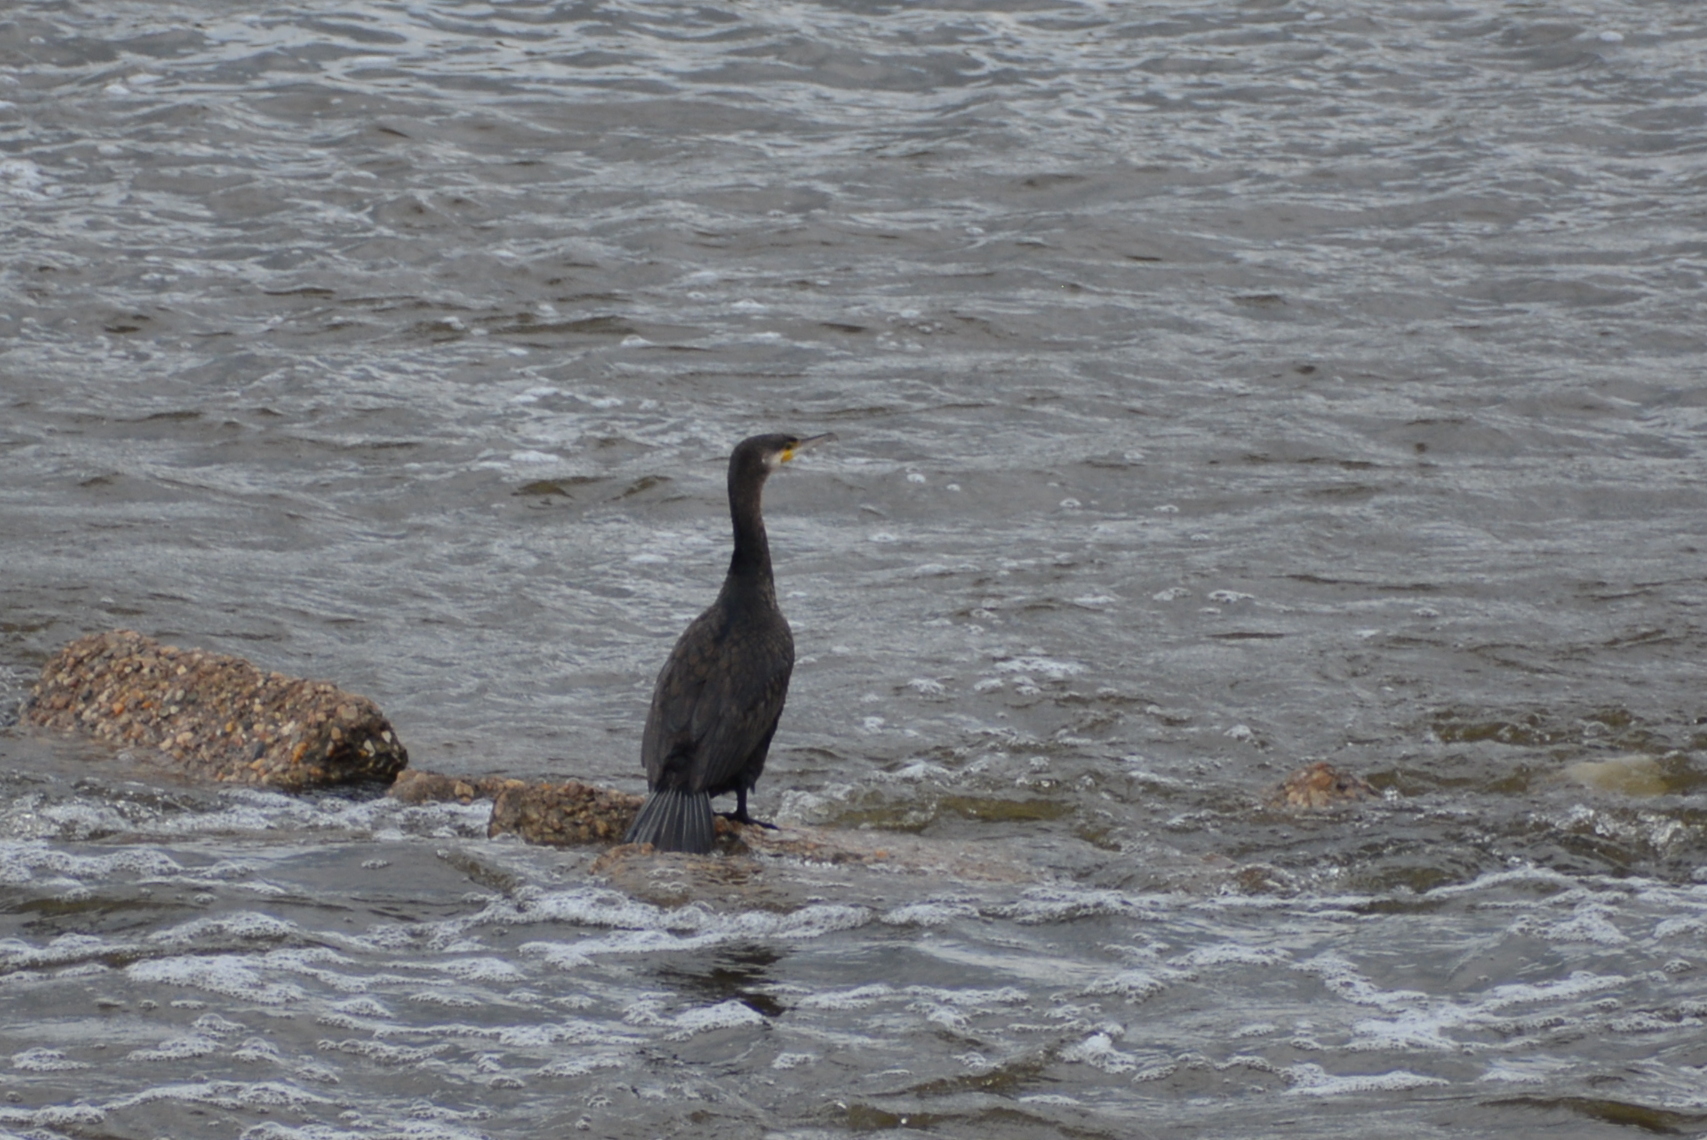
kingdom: Animalia
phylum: Chordata
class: Aves
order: Suliformes
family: Phalacrocoracidae
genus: Phalacrocorax
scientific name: Phalacrocorax carbo
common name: Great cormorant
